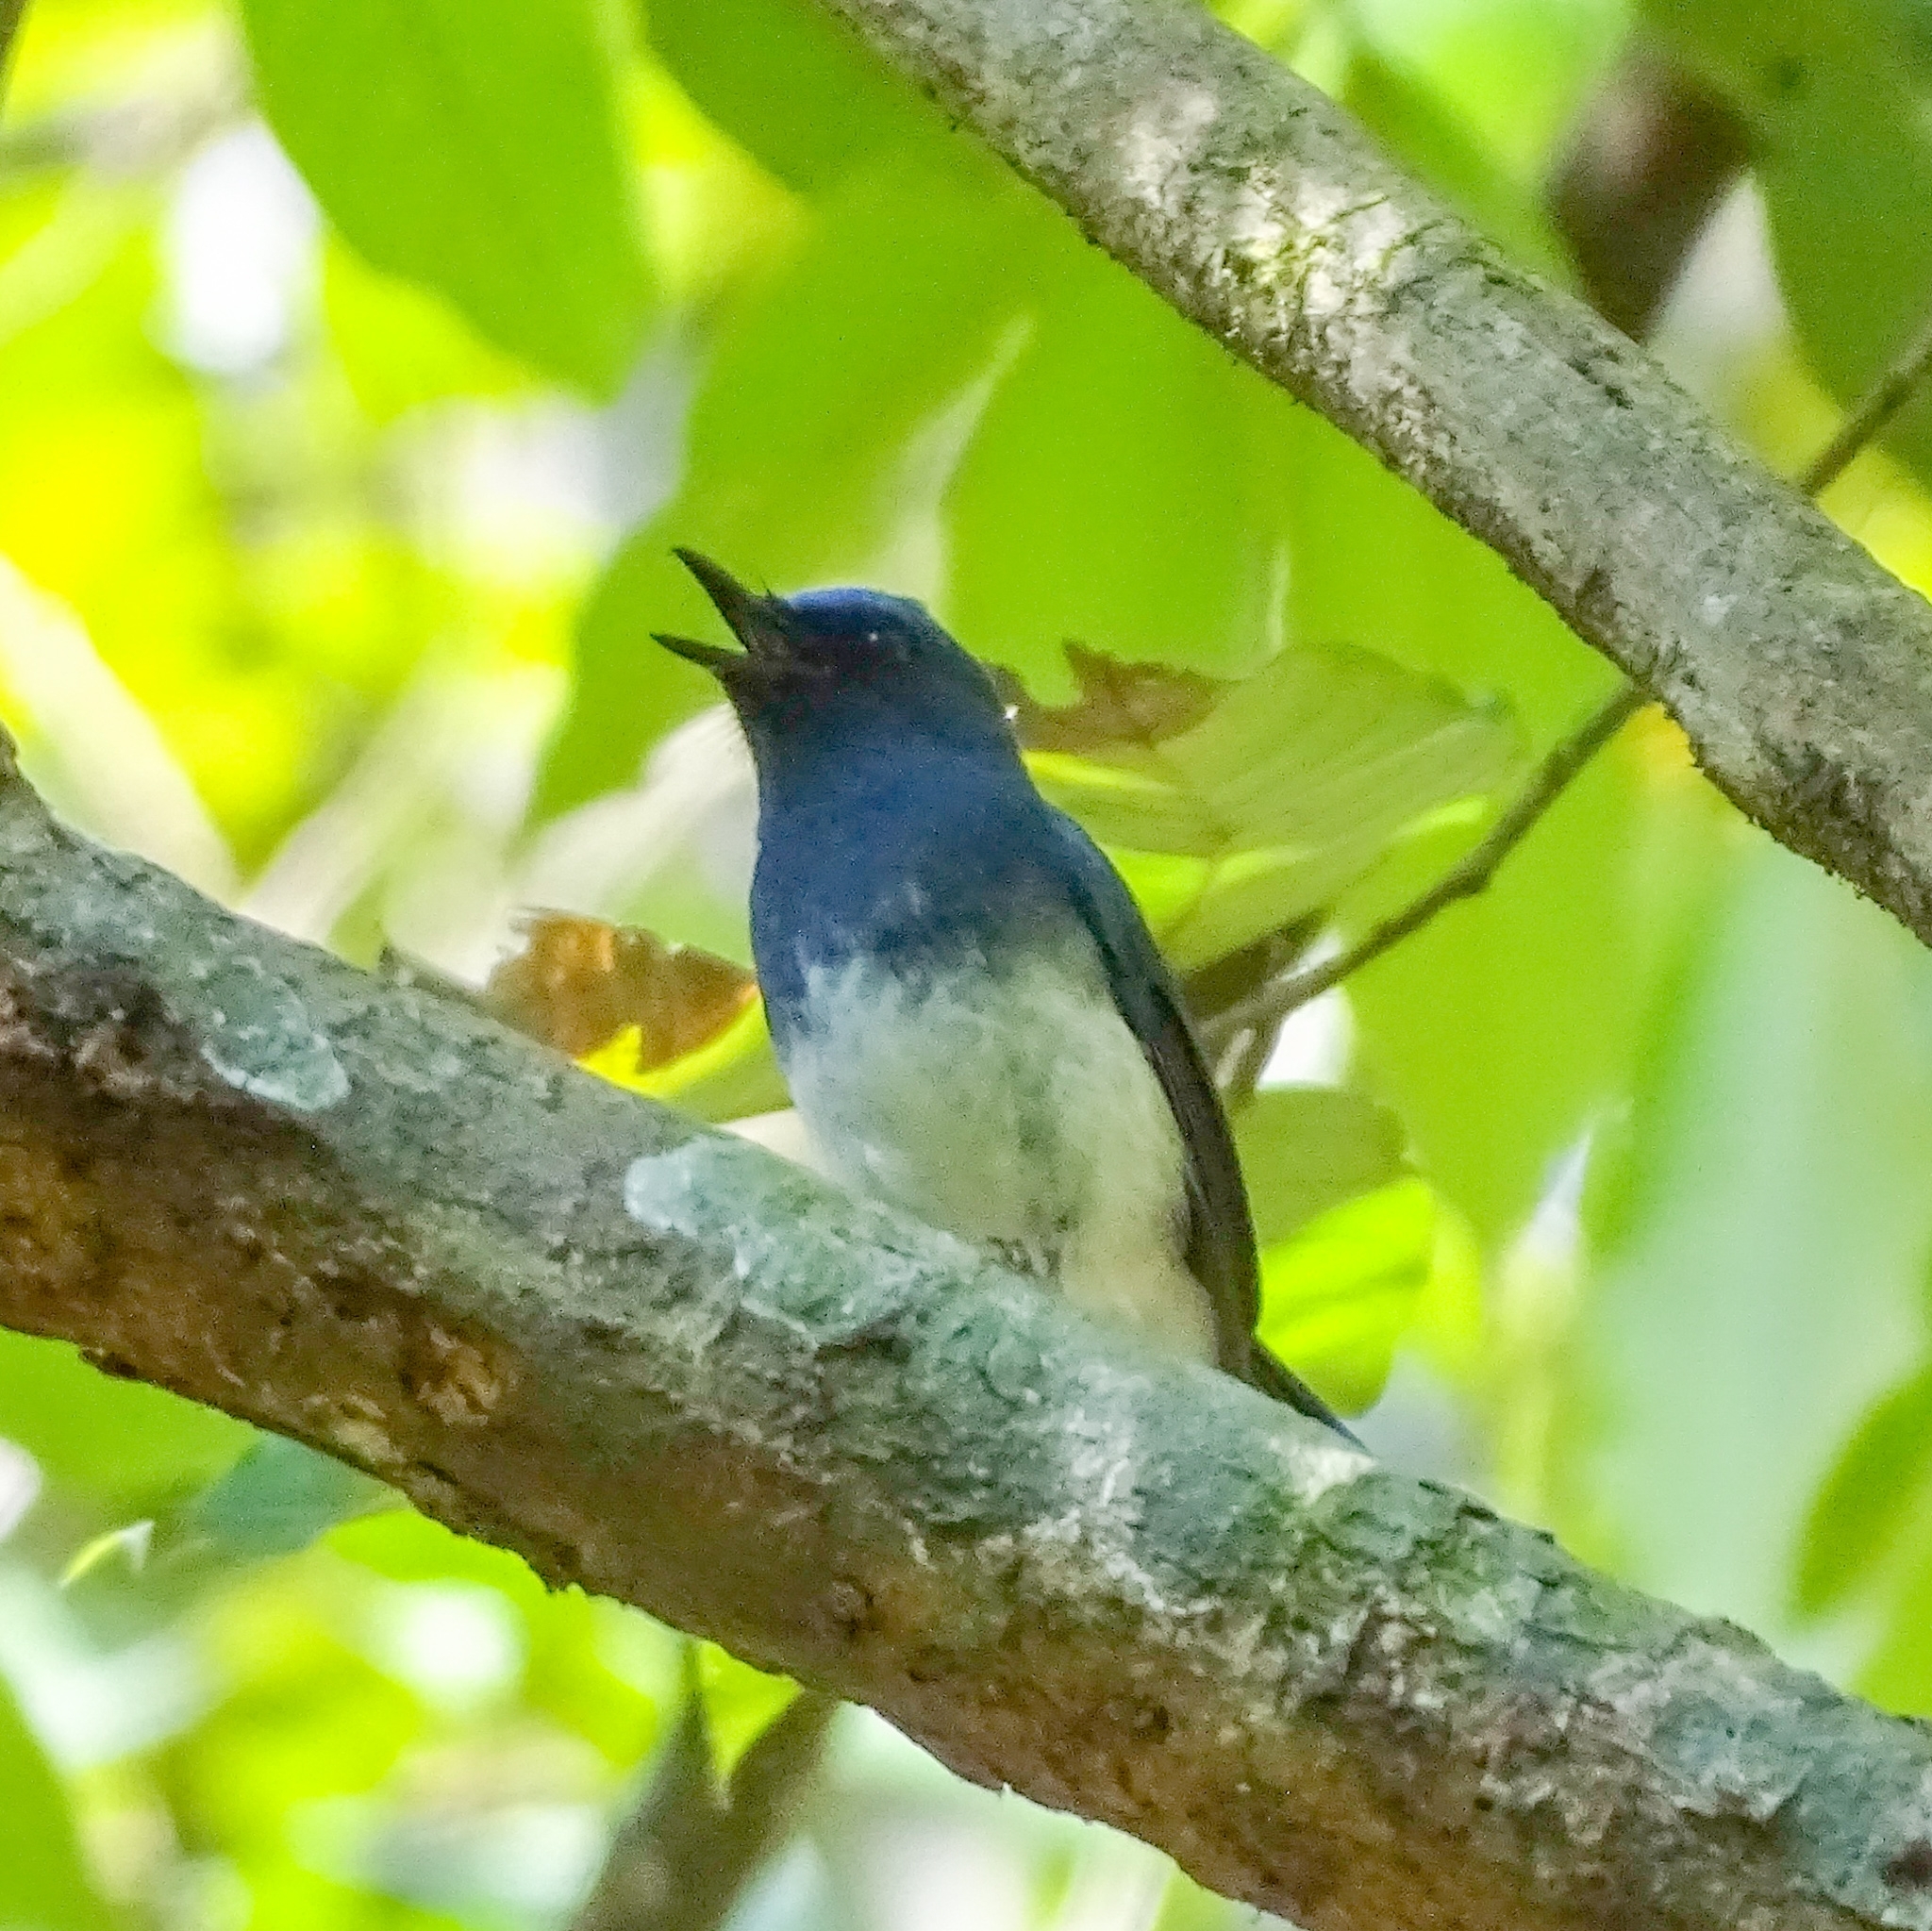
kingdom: Animalia
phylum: Chordata
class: Aves
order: Passeriformes
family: Muscicapidae
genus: Cyornis
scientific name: Cyornis pallidipes
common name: White-bellied blue flycatcher
